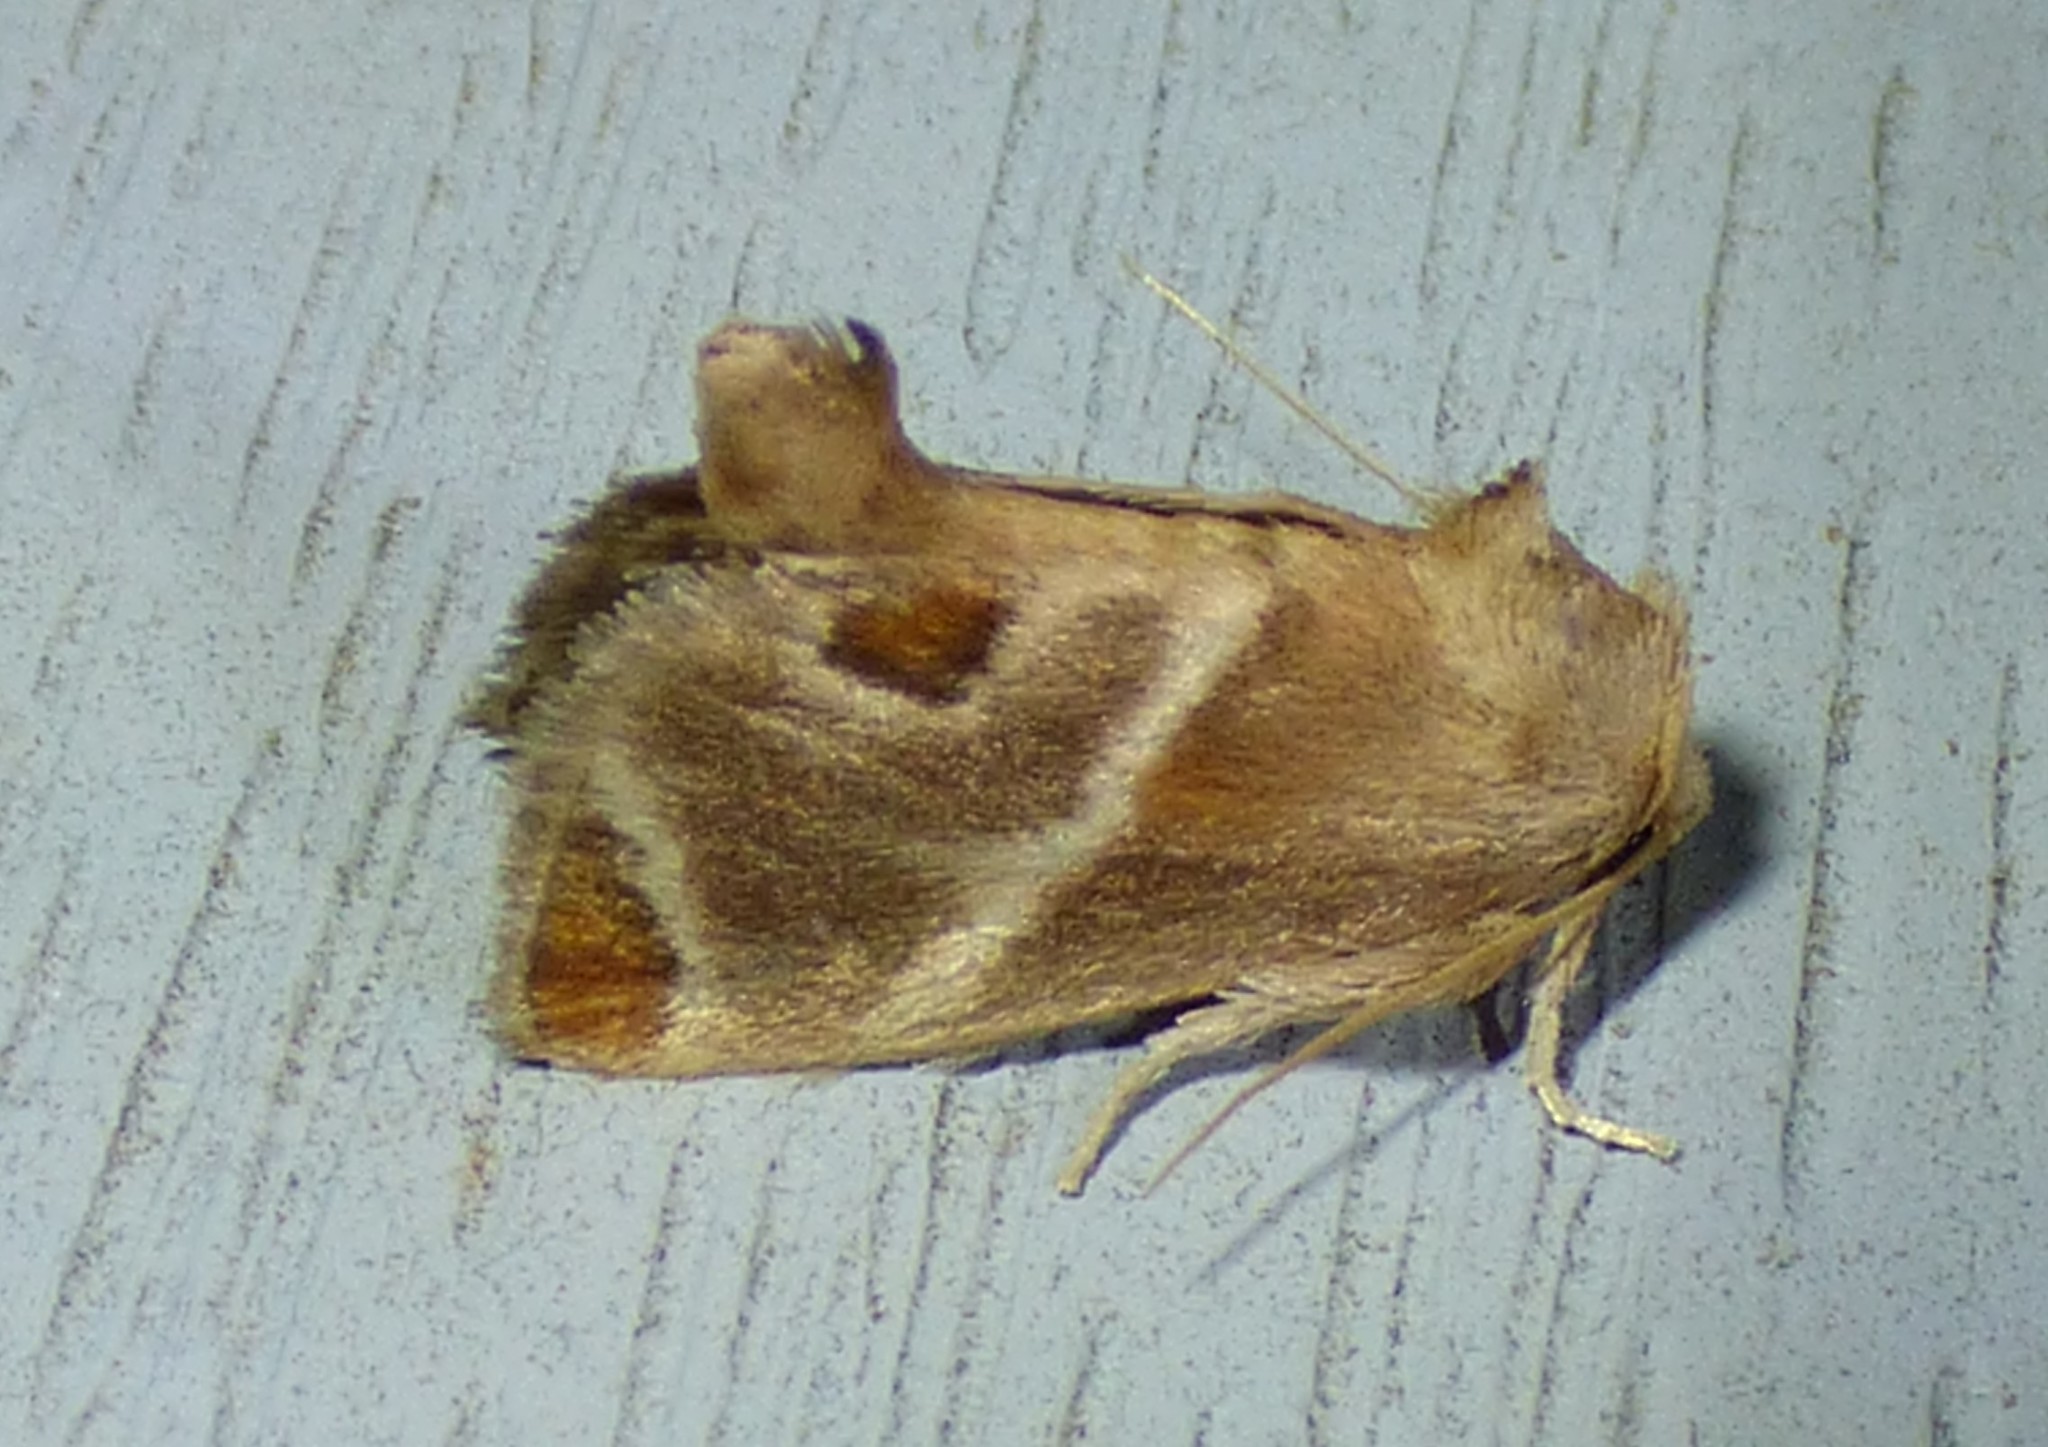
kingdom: Animalia
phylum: Arthropoda
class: Insecta
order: Lepidoptera
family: Limacodidae
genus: Apoda
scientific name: Apoda biguttata
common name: Shagreened slug moth
